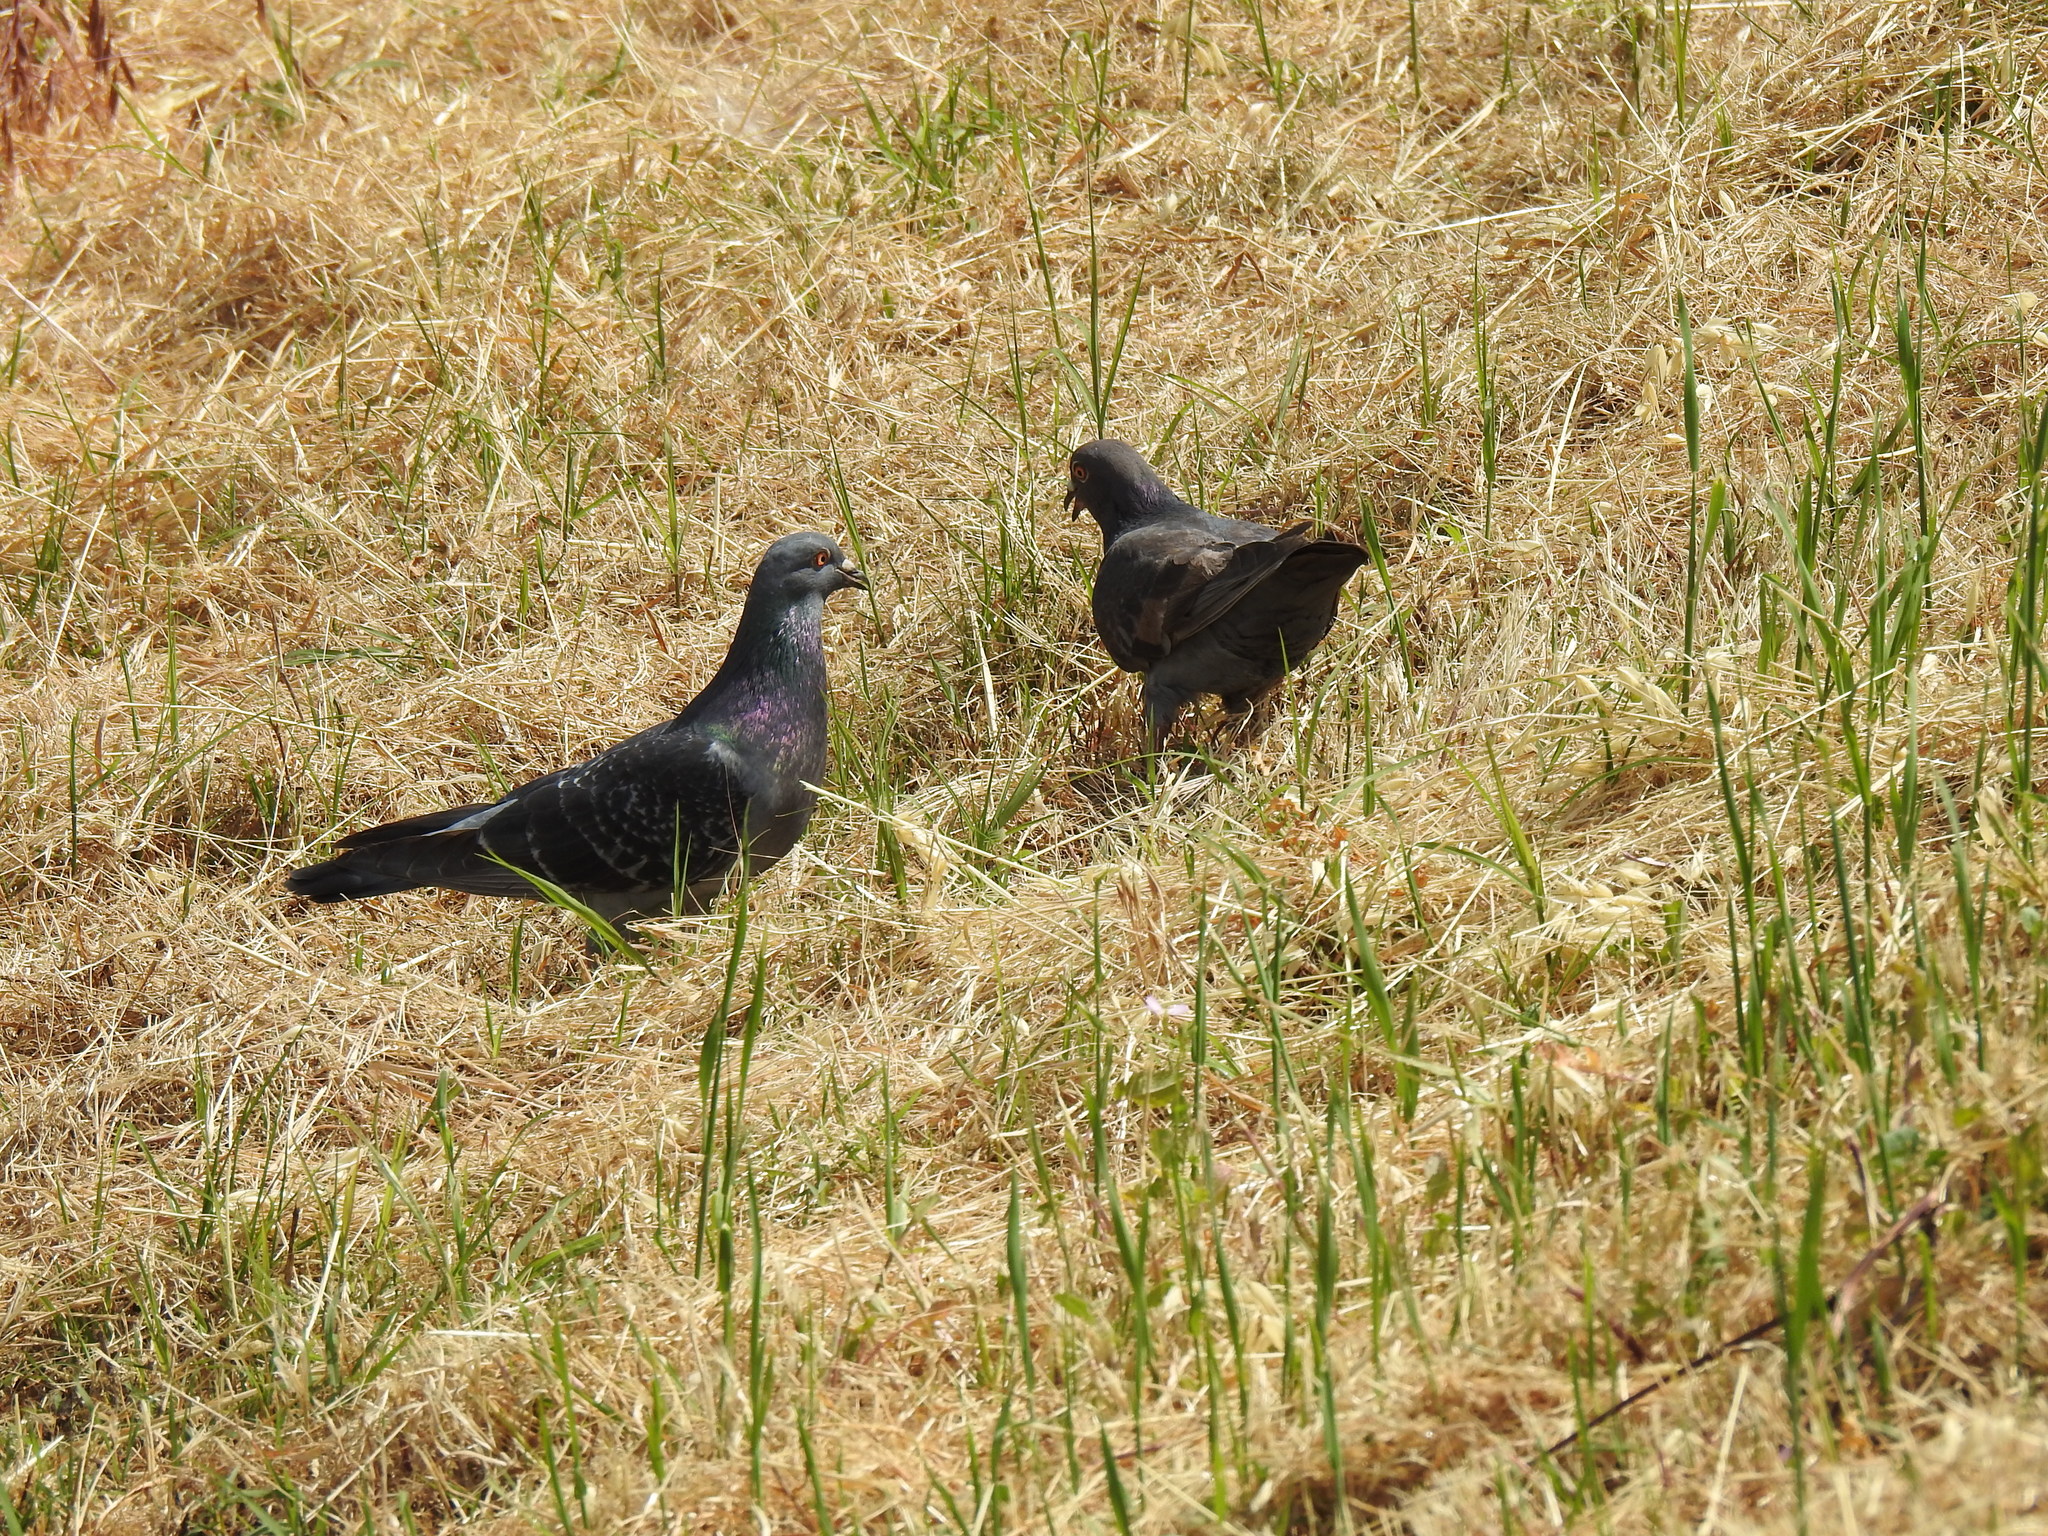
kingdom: Animalia
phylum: Chordata
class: Aves
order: Columbiformes
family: Columbidae
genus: Columba
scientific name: Columba livia
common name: Rock pigeon
